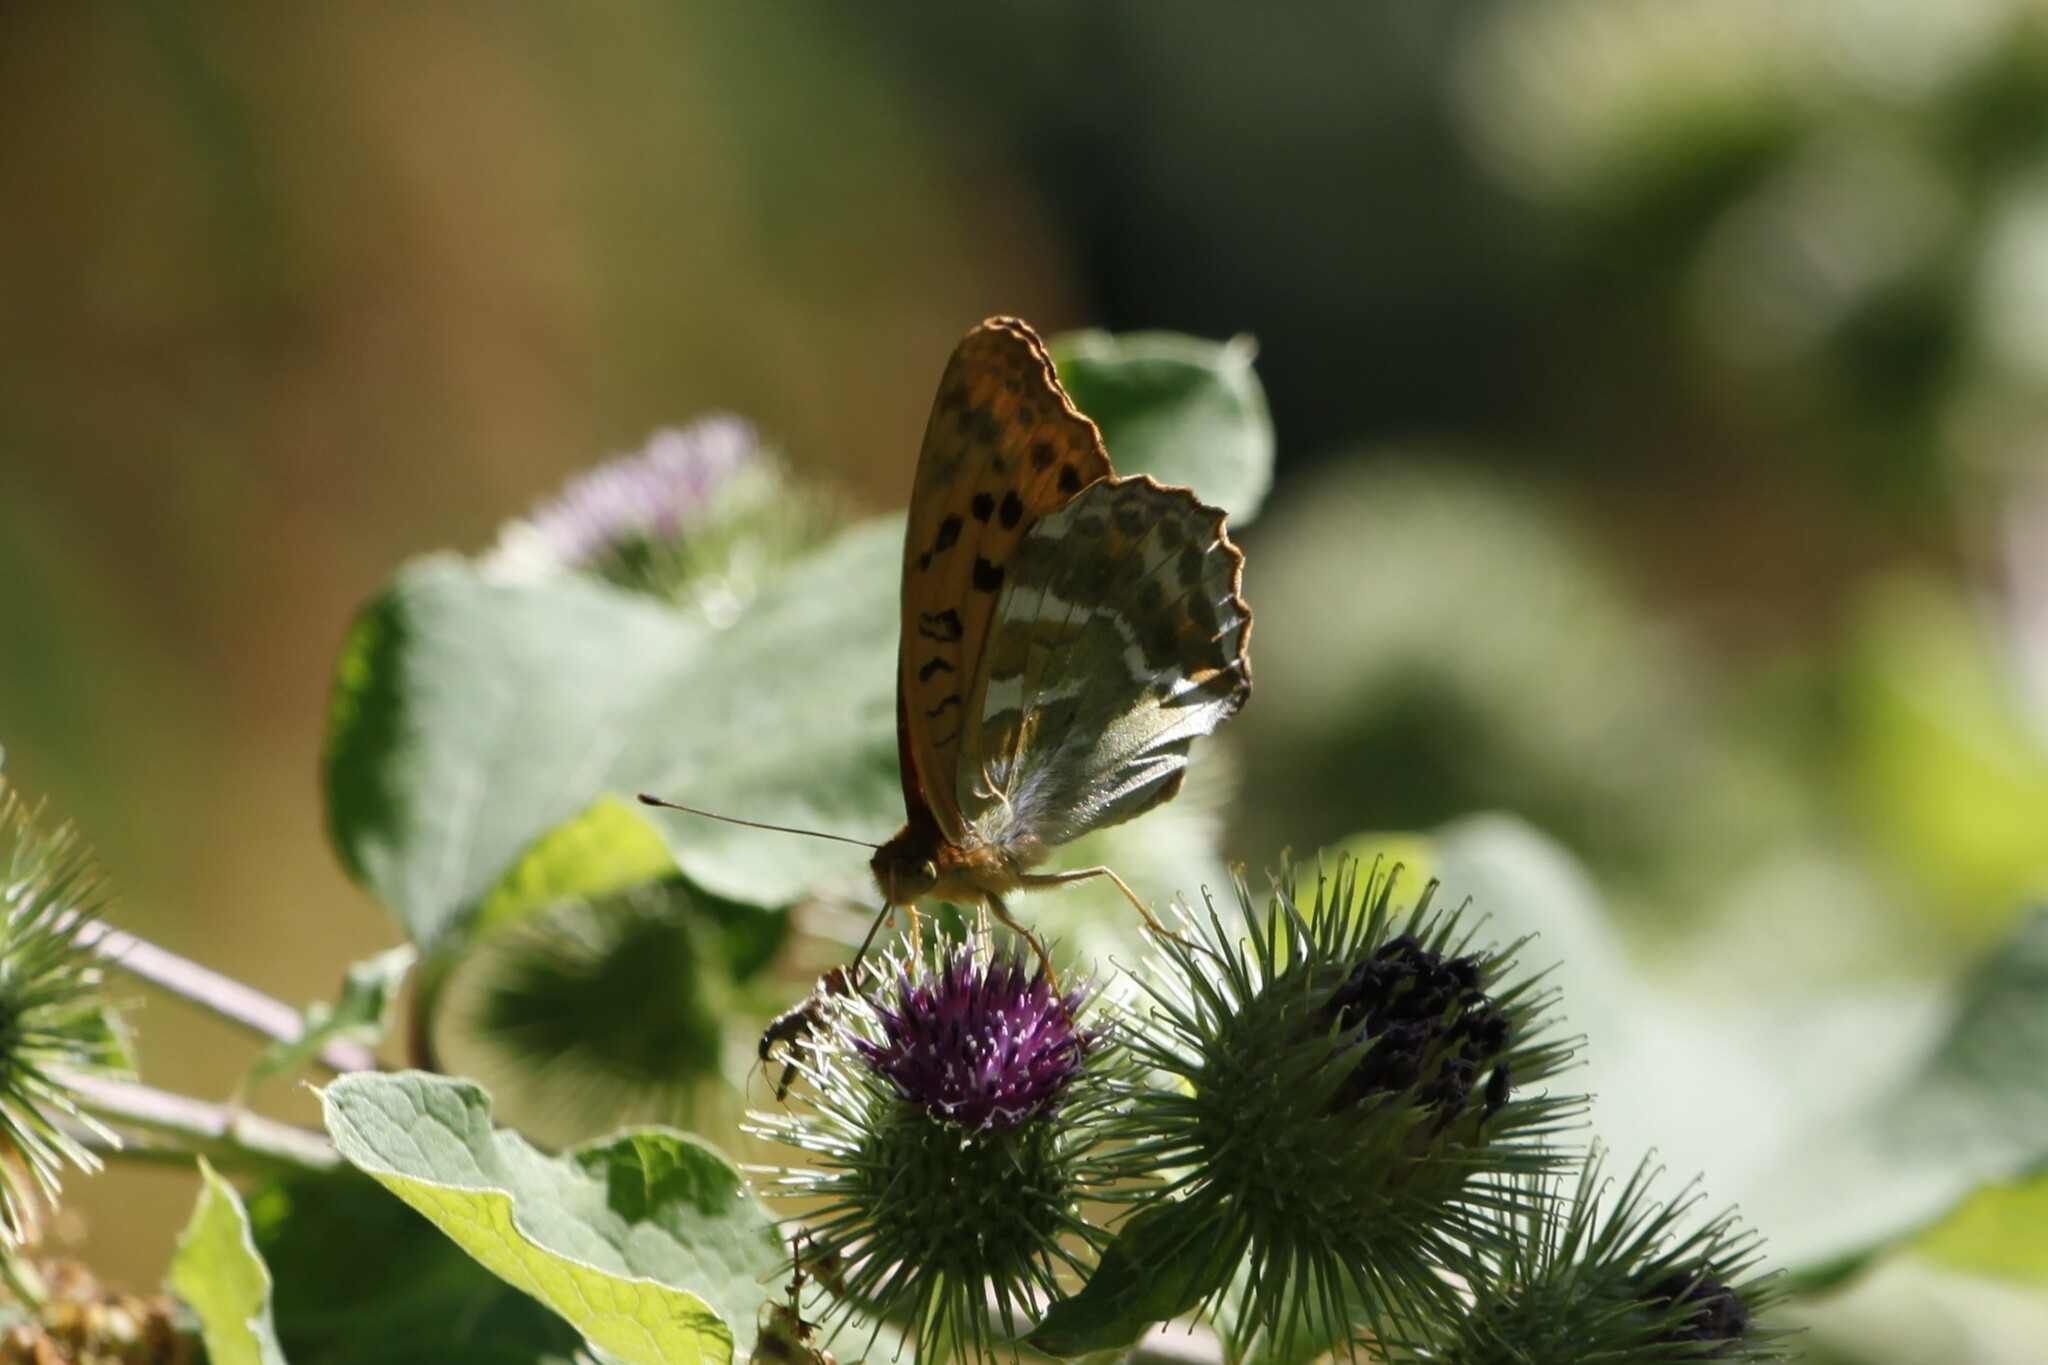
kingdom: Animalia
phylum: Arthropoda
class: Insecta
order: Lepidoptera
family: Nymphalidae
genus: Argynnis
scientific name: Argynnis paphia
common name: Silver-washed fritillary
